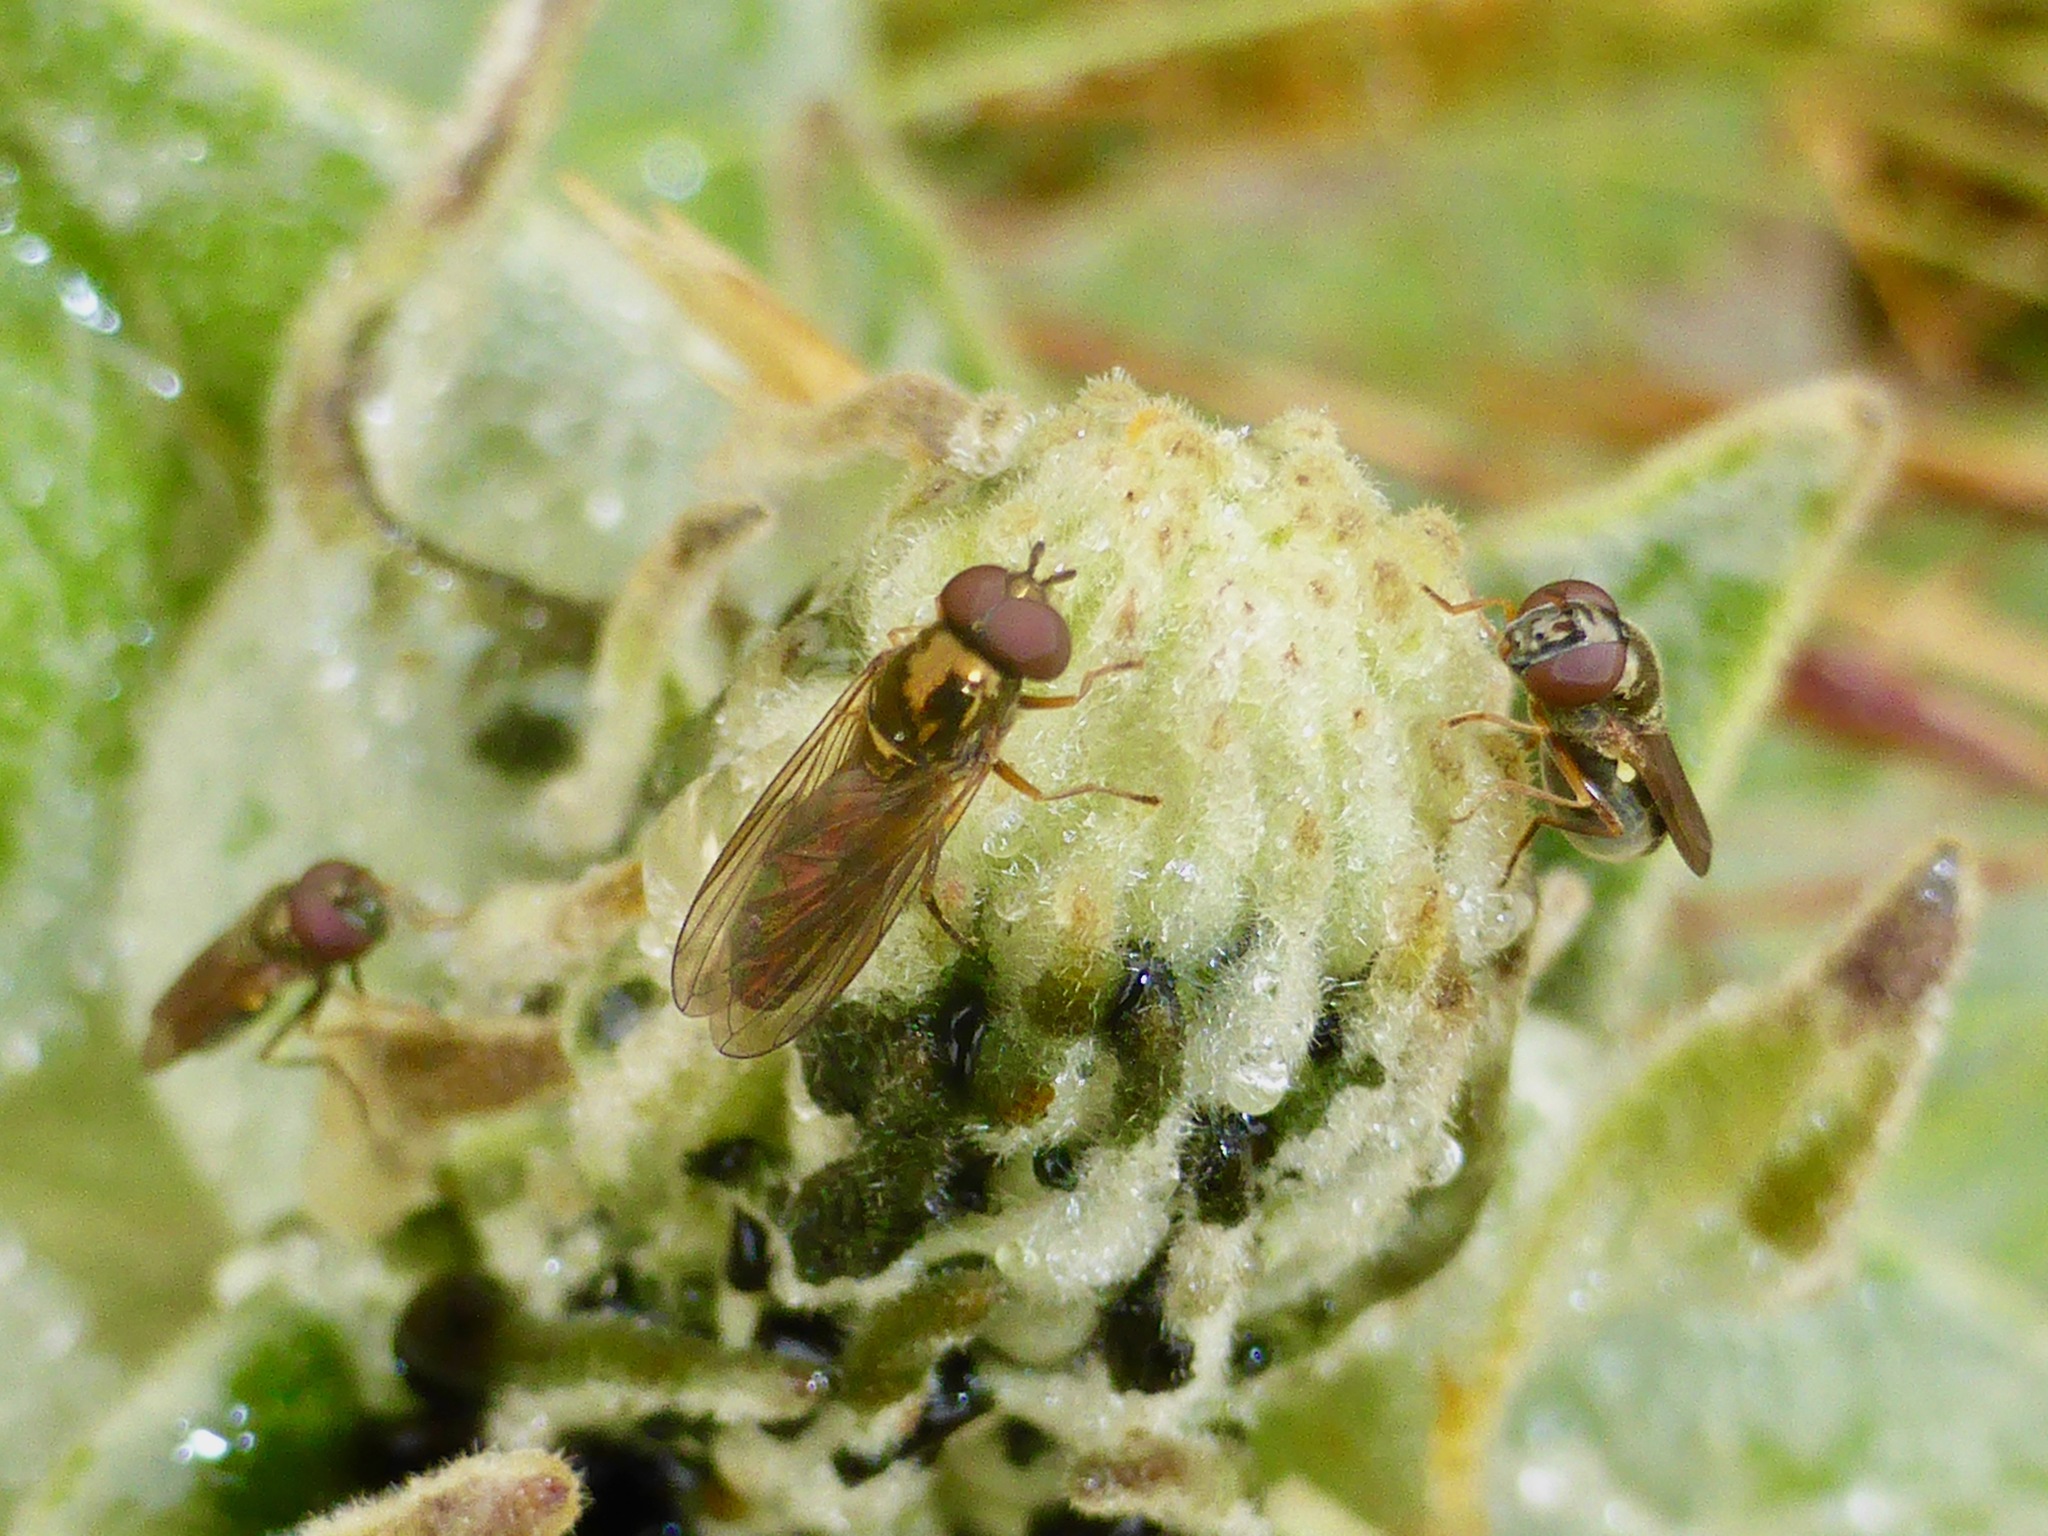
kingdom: Animalia
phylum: Arthropoda
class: Insecta
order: Diptera
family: Syrphidae
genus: Melanostoma
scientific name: Melanostoma fasciatum
